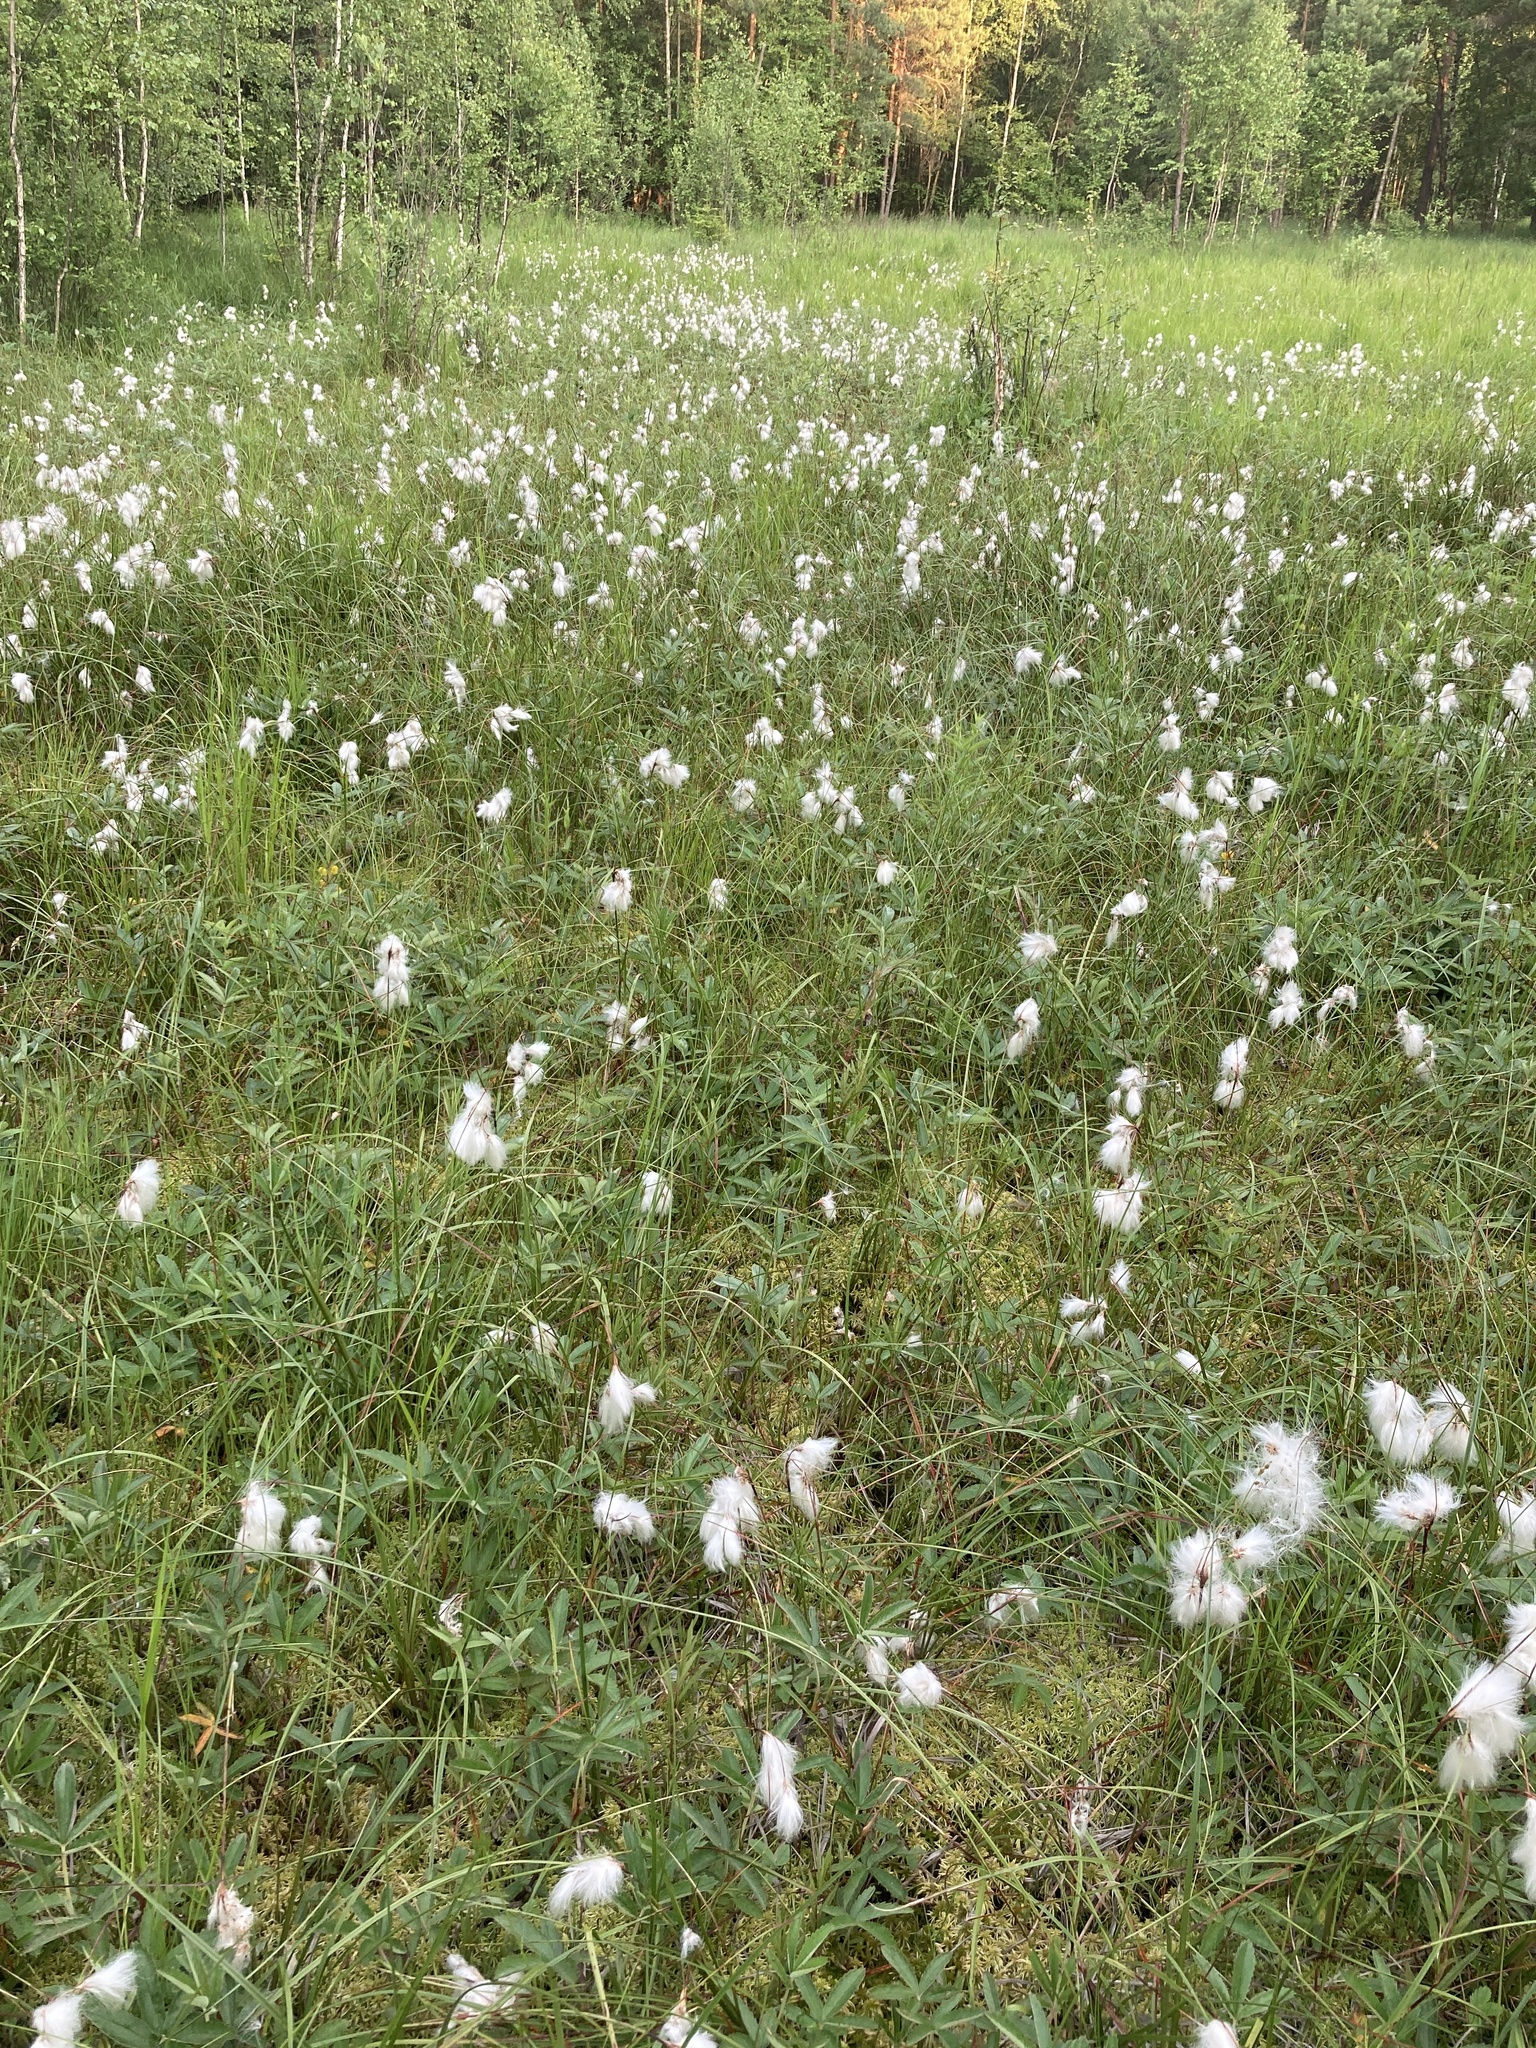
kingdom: Plantae
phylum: Tracheophyta
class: Liliopsida
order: Poales
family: Cyperaceae
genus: Eriophorum
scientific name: Eriophorum angustifolium
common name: Common cottongrass
